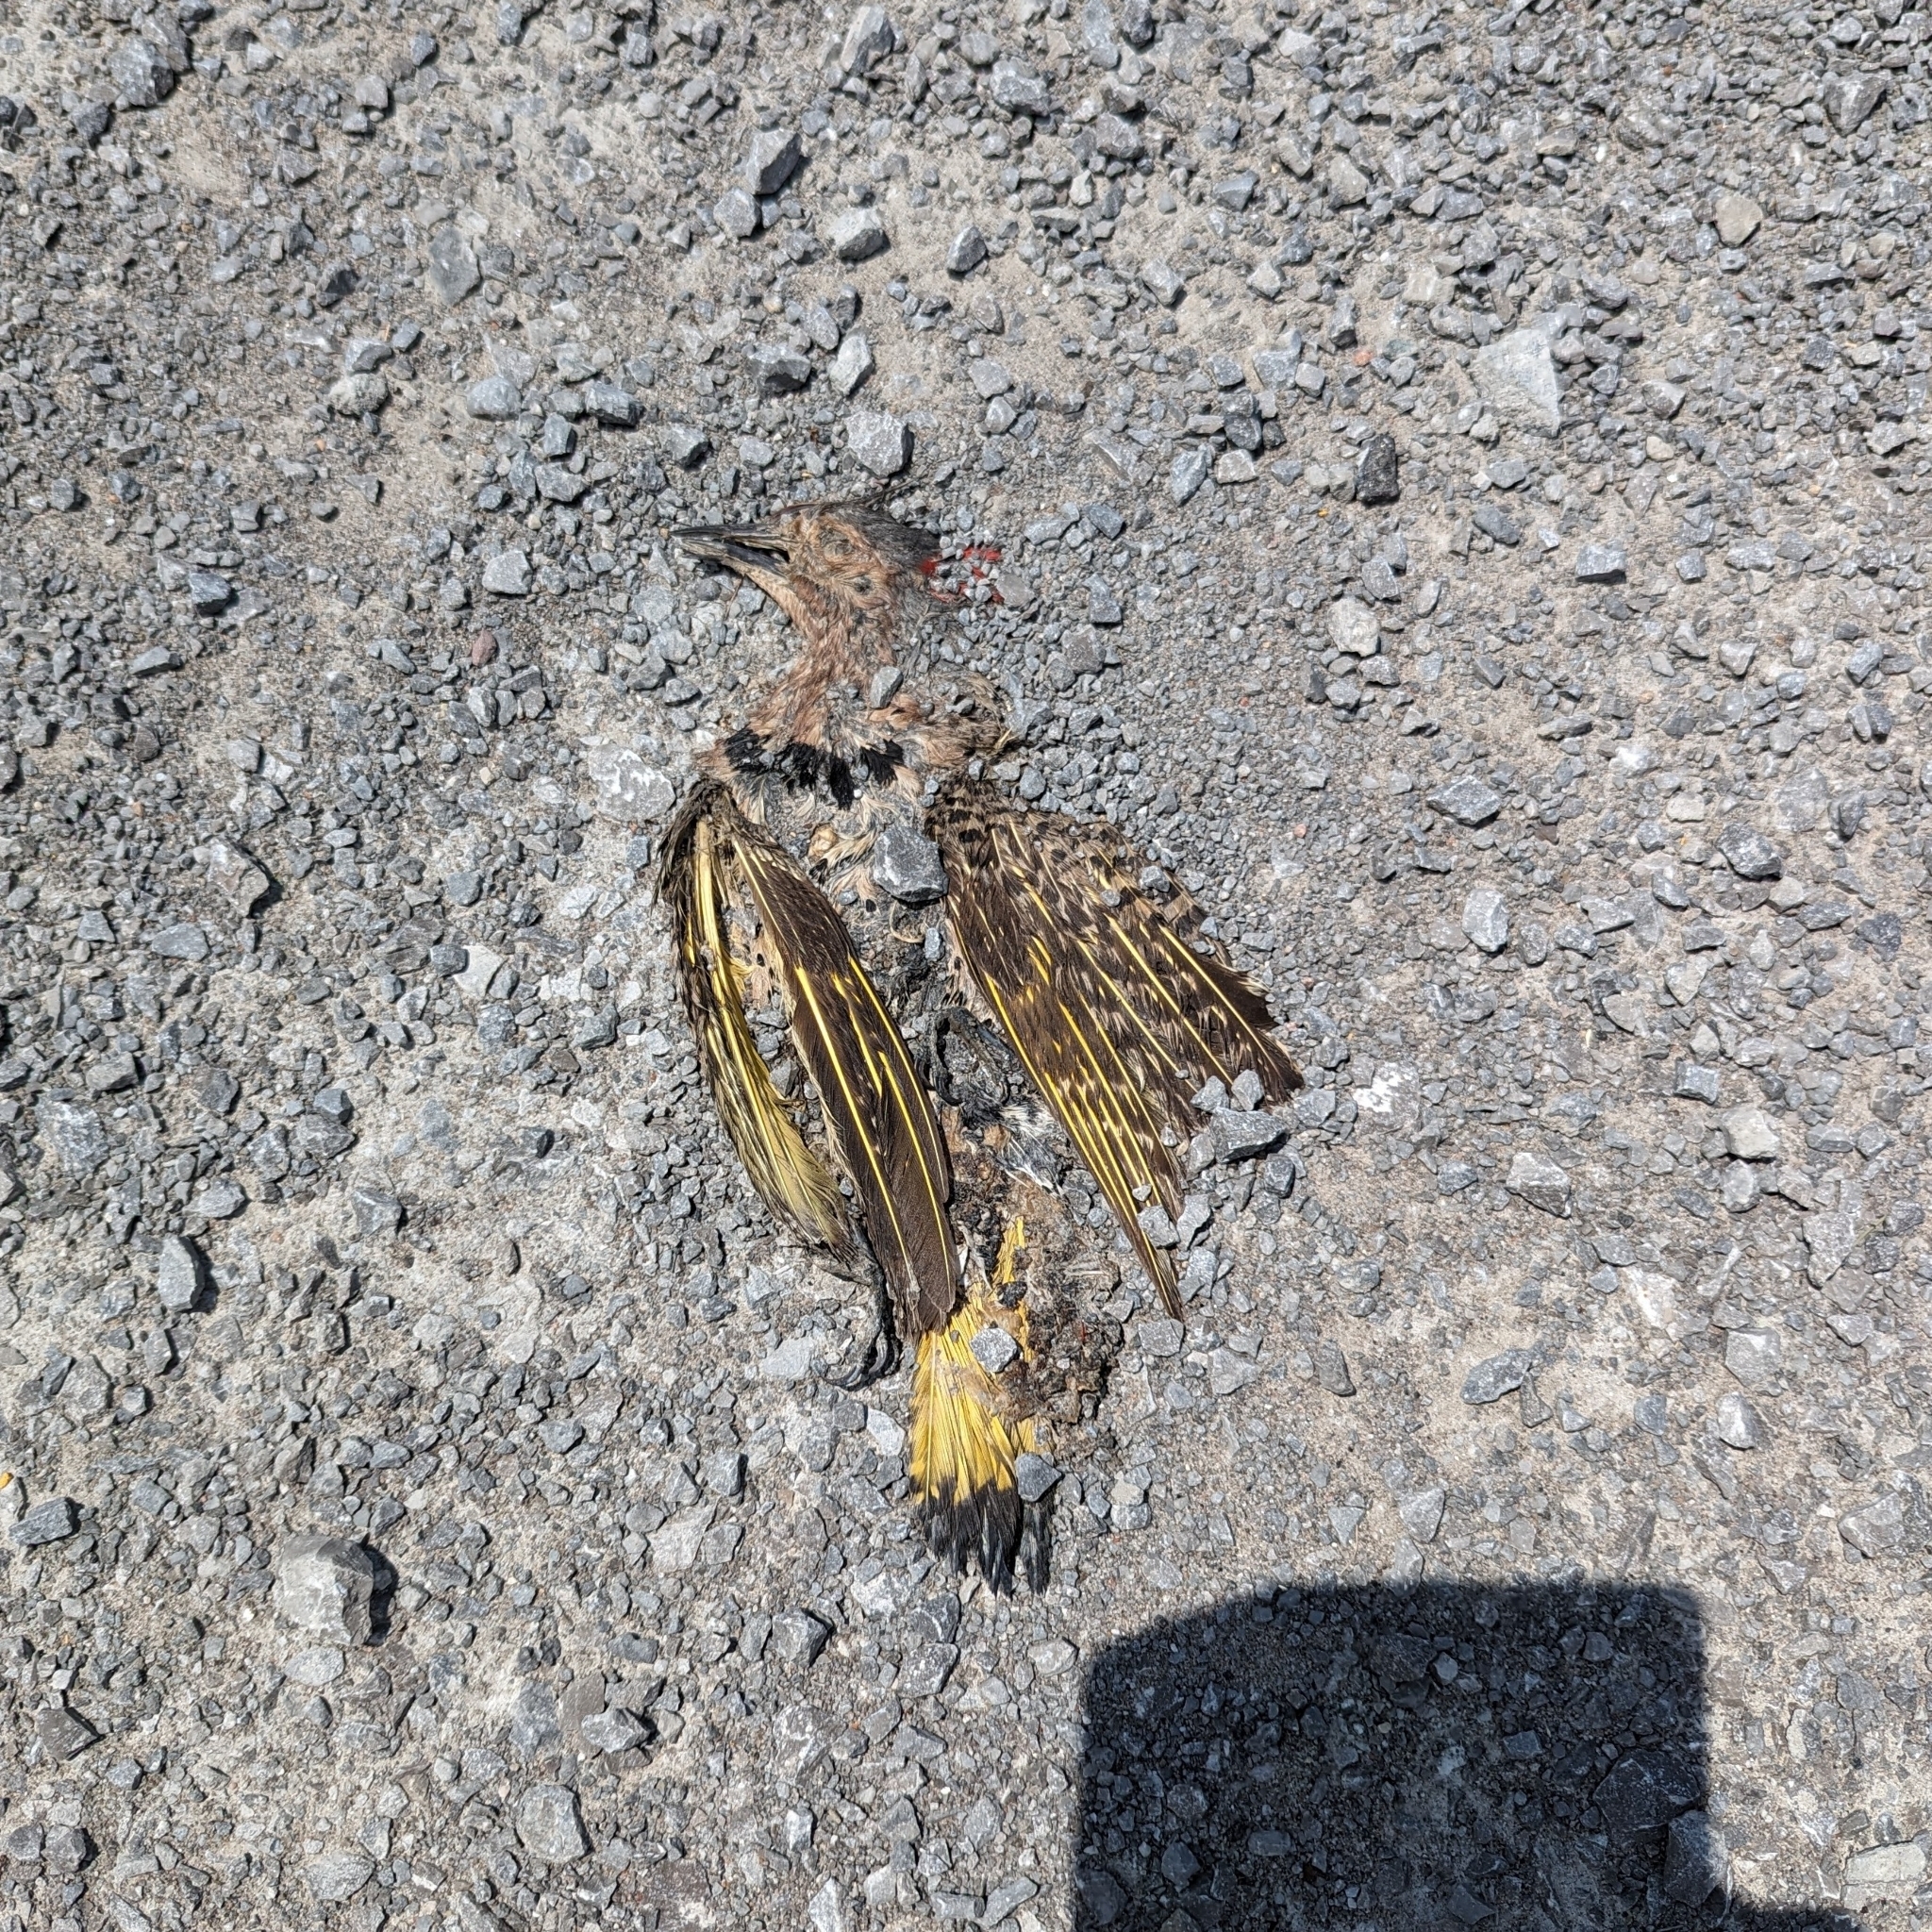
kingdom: Animalia
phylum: Chordata
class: Aves
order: Piciformes
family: Picidae
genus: Colaptes
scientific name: Colaptes auratus
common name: Northern flicker
